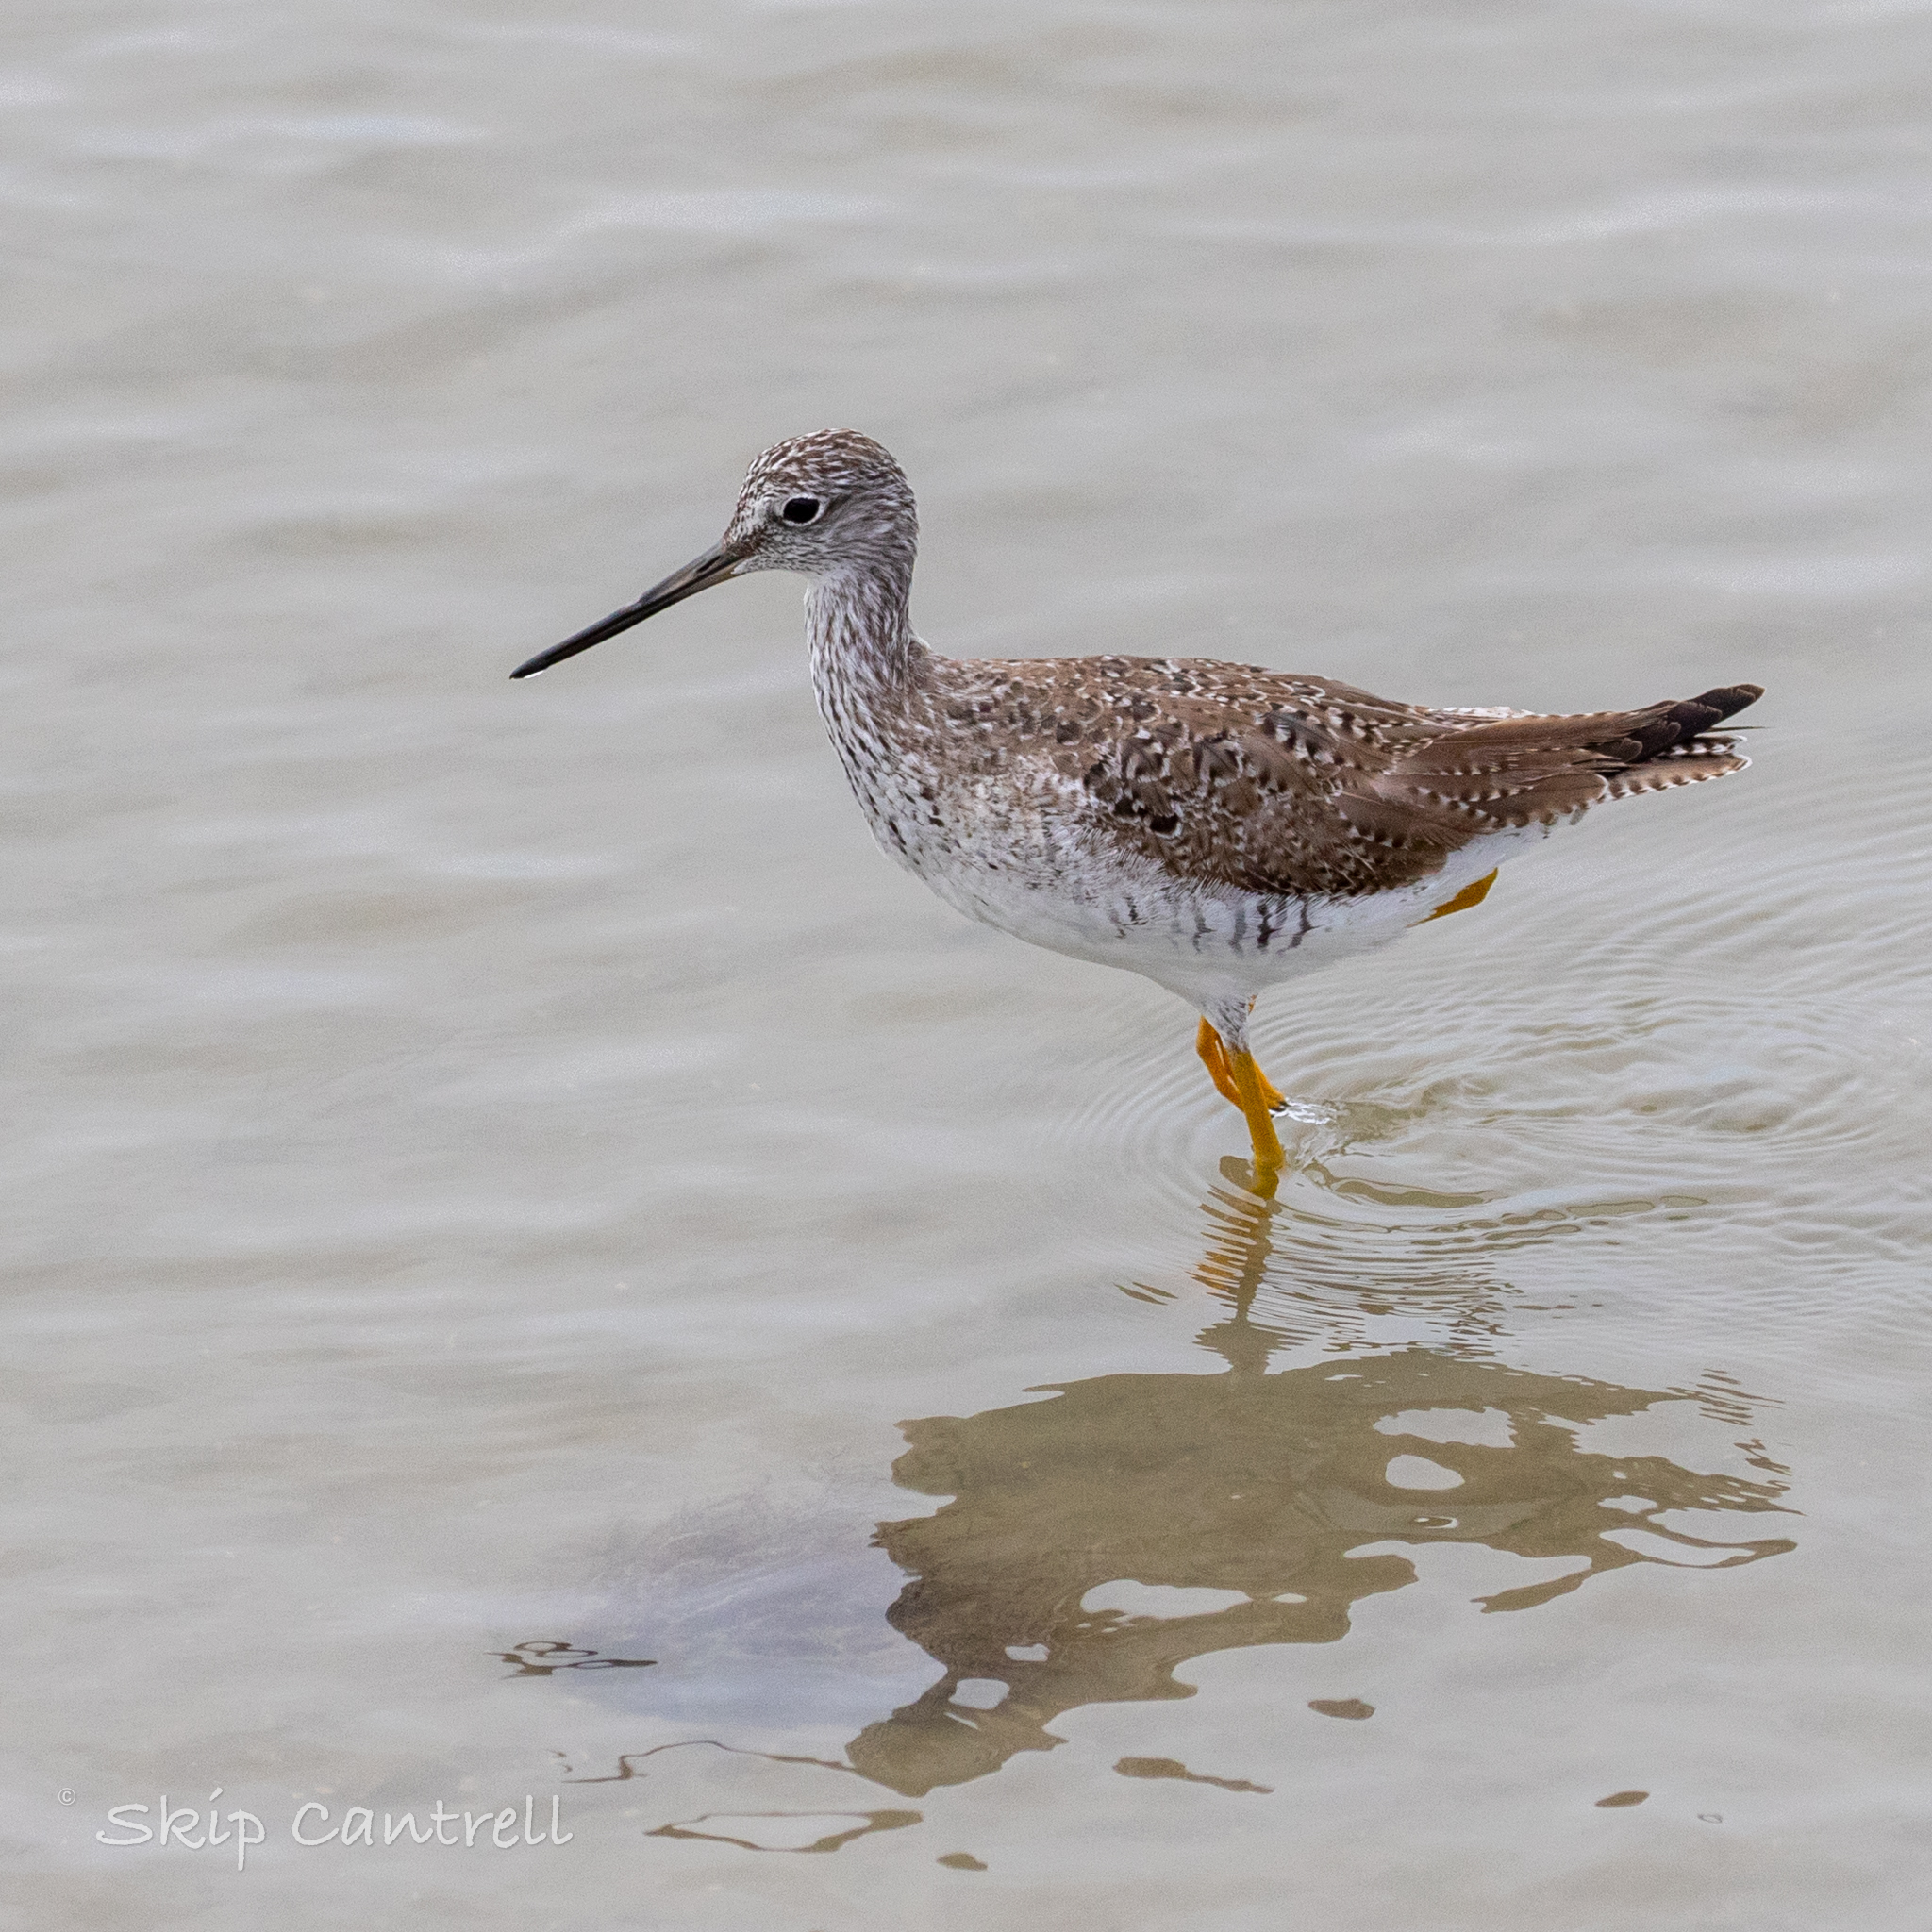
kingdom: Animalia
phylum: Chordata
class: Aves
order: Charadriiformes
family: Scolopacidae
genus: Tringa
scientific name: Tringa melanoleuca
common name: Greater yellowlegs
